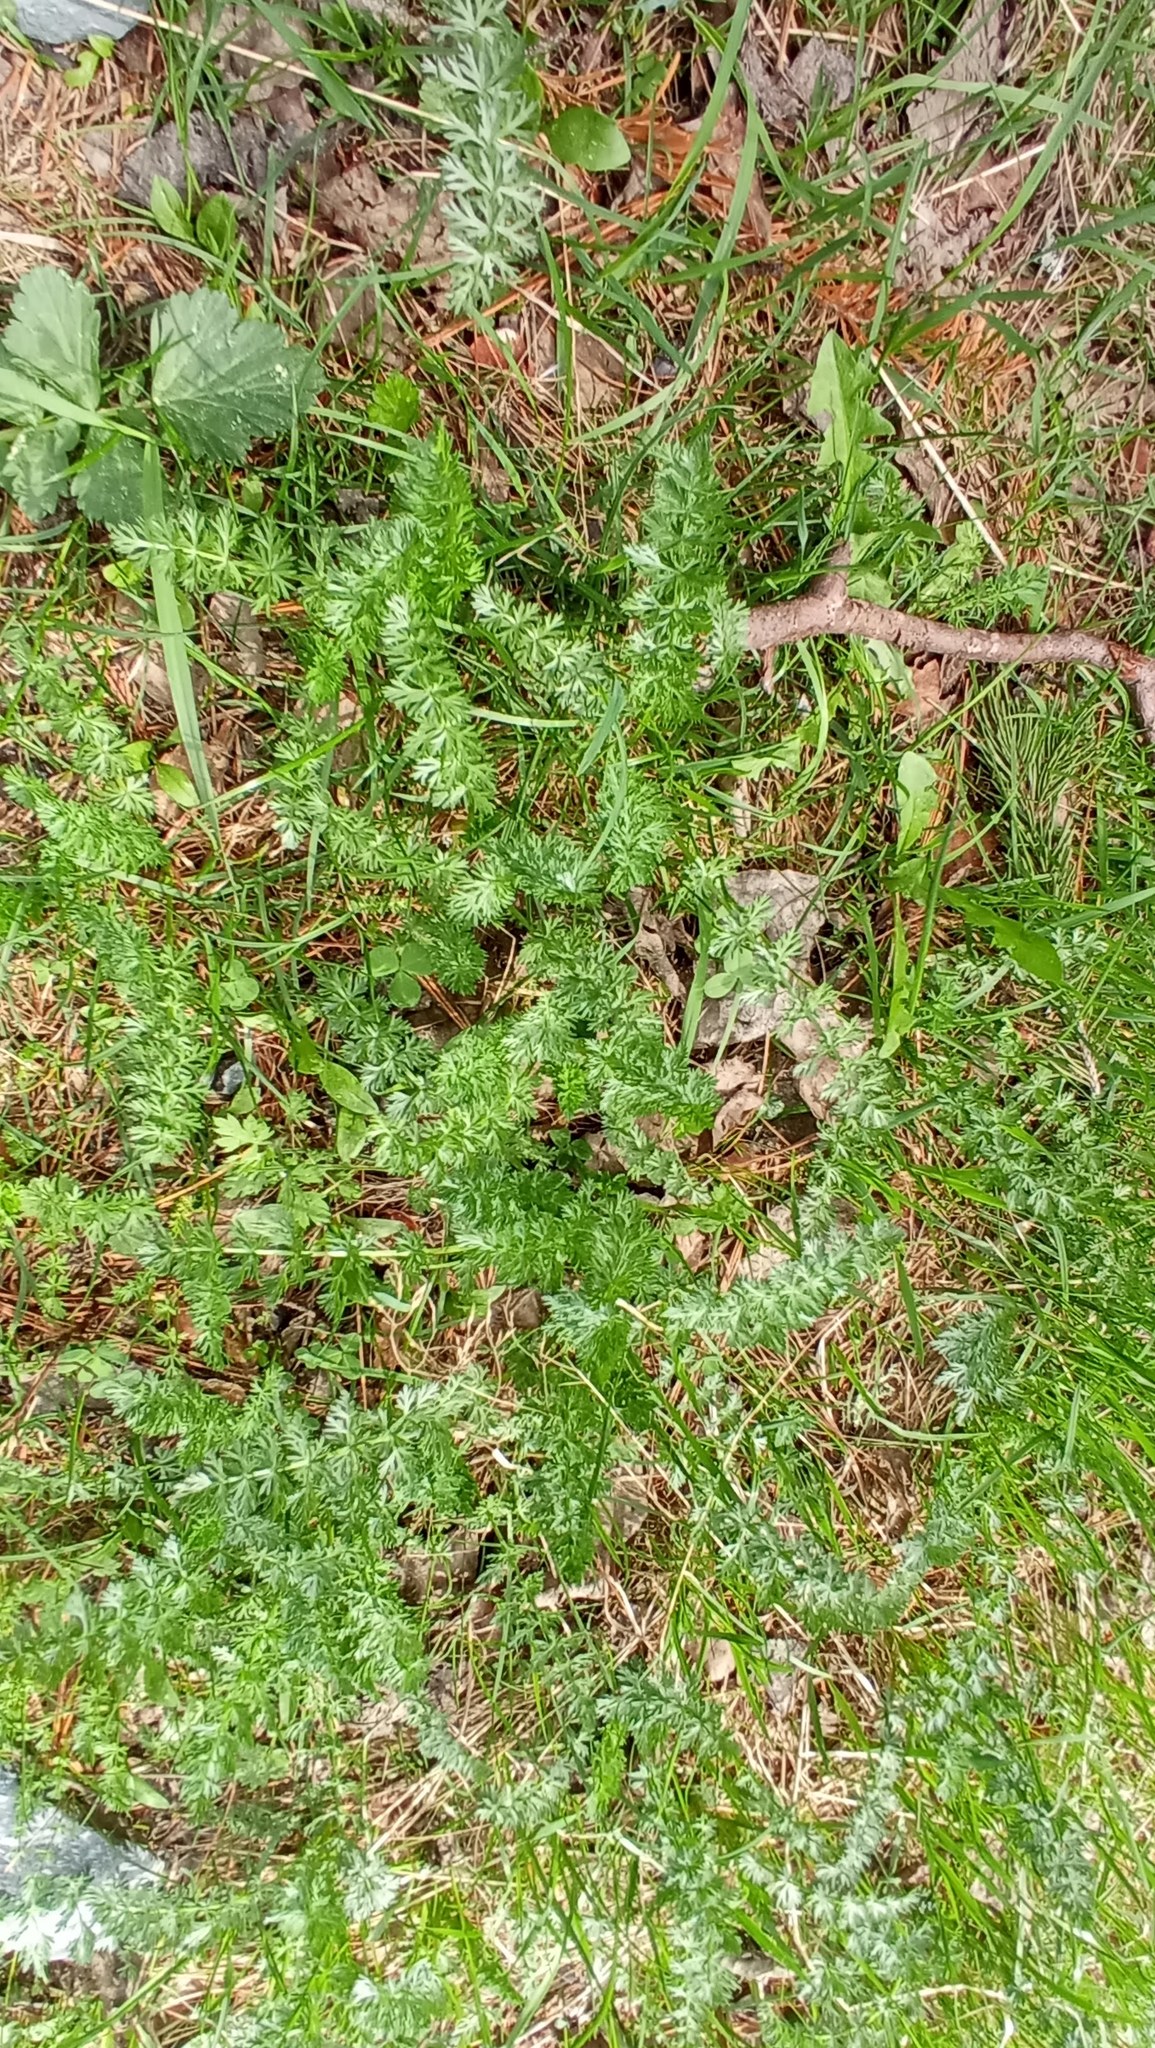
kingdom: Plantae
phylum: Tracheophyta
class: Magnoliopsida
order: Apiales
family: Apiaceae
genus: Carum
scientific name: Carum carvi
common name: Caraway
